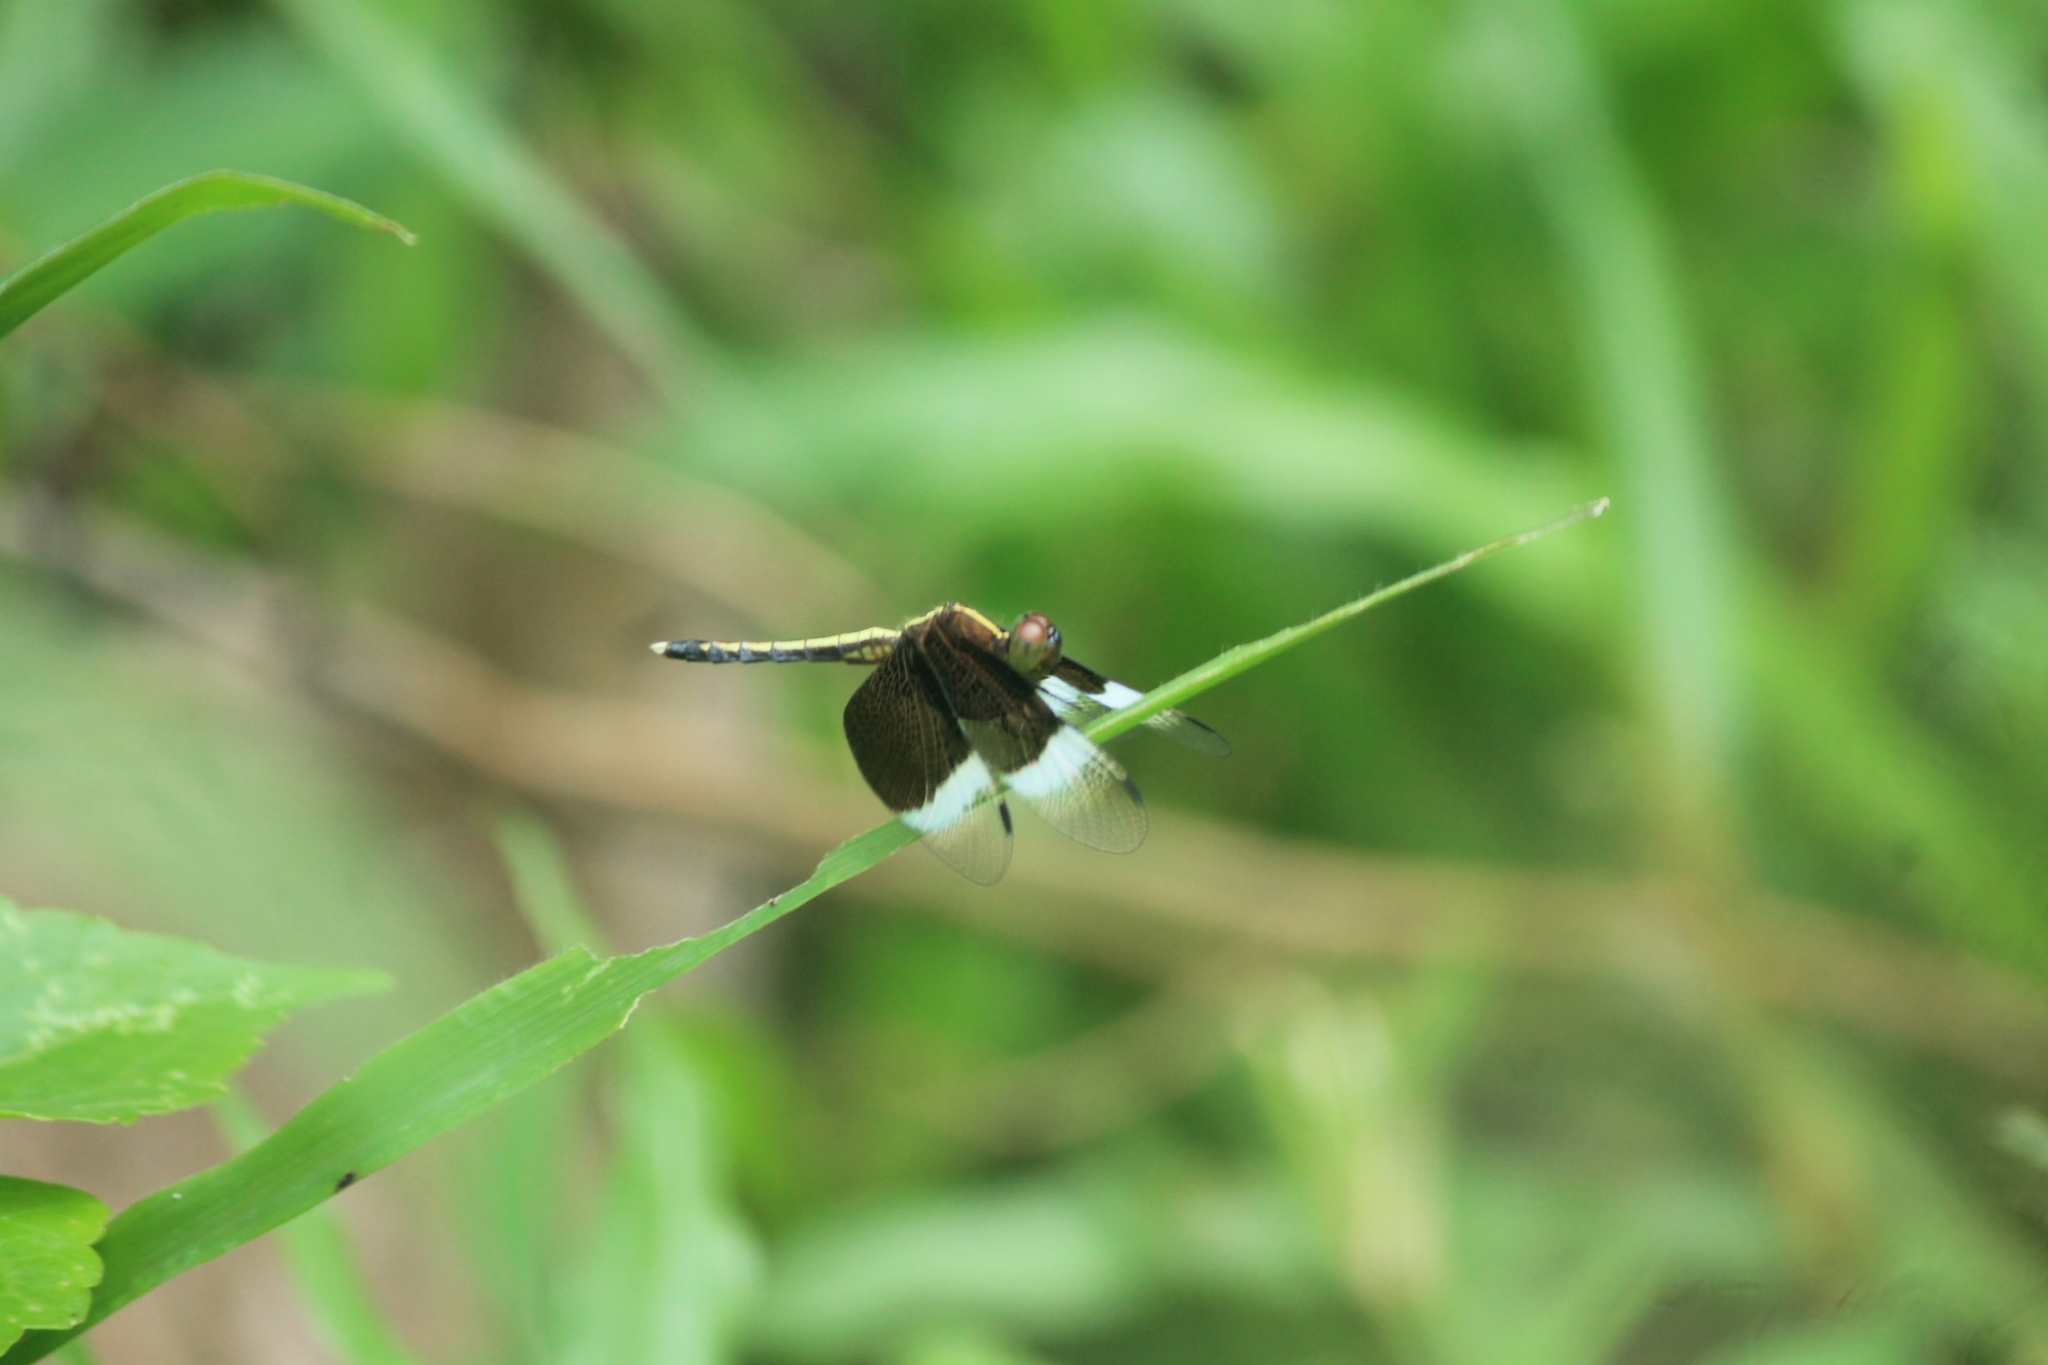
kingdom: Animalia
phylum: Arthropoda
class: Insecta
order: Odonata
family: Libellulidae
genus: Neurothemis
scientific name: Neurothemis tullia
